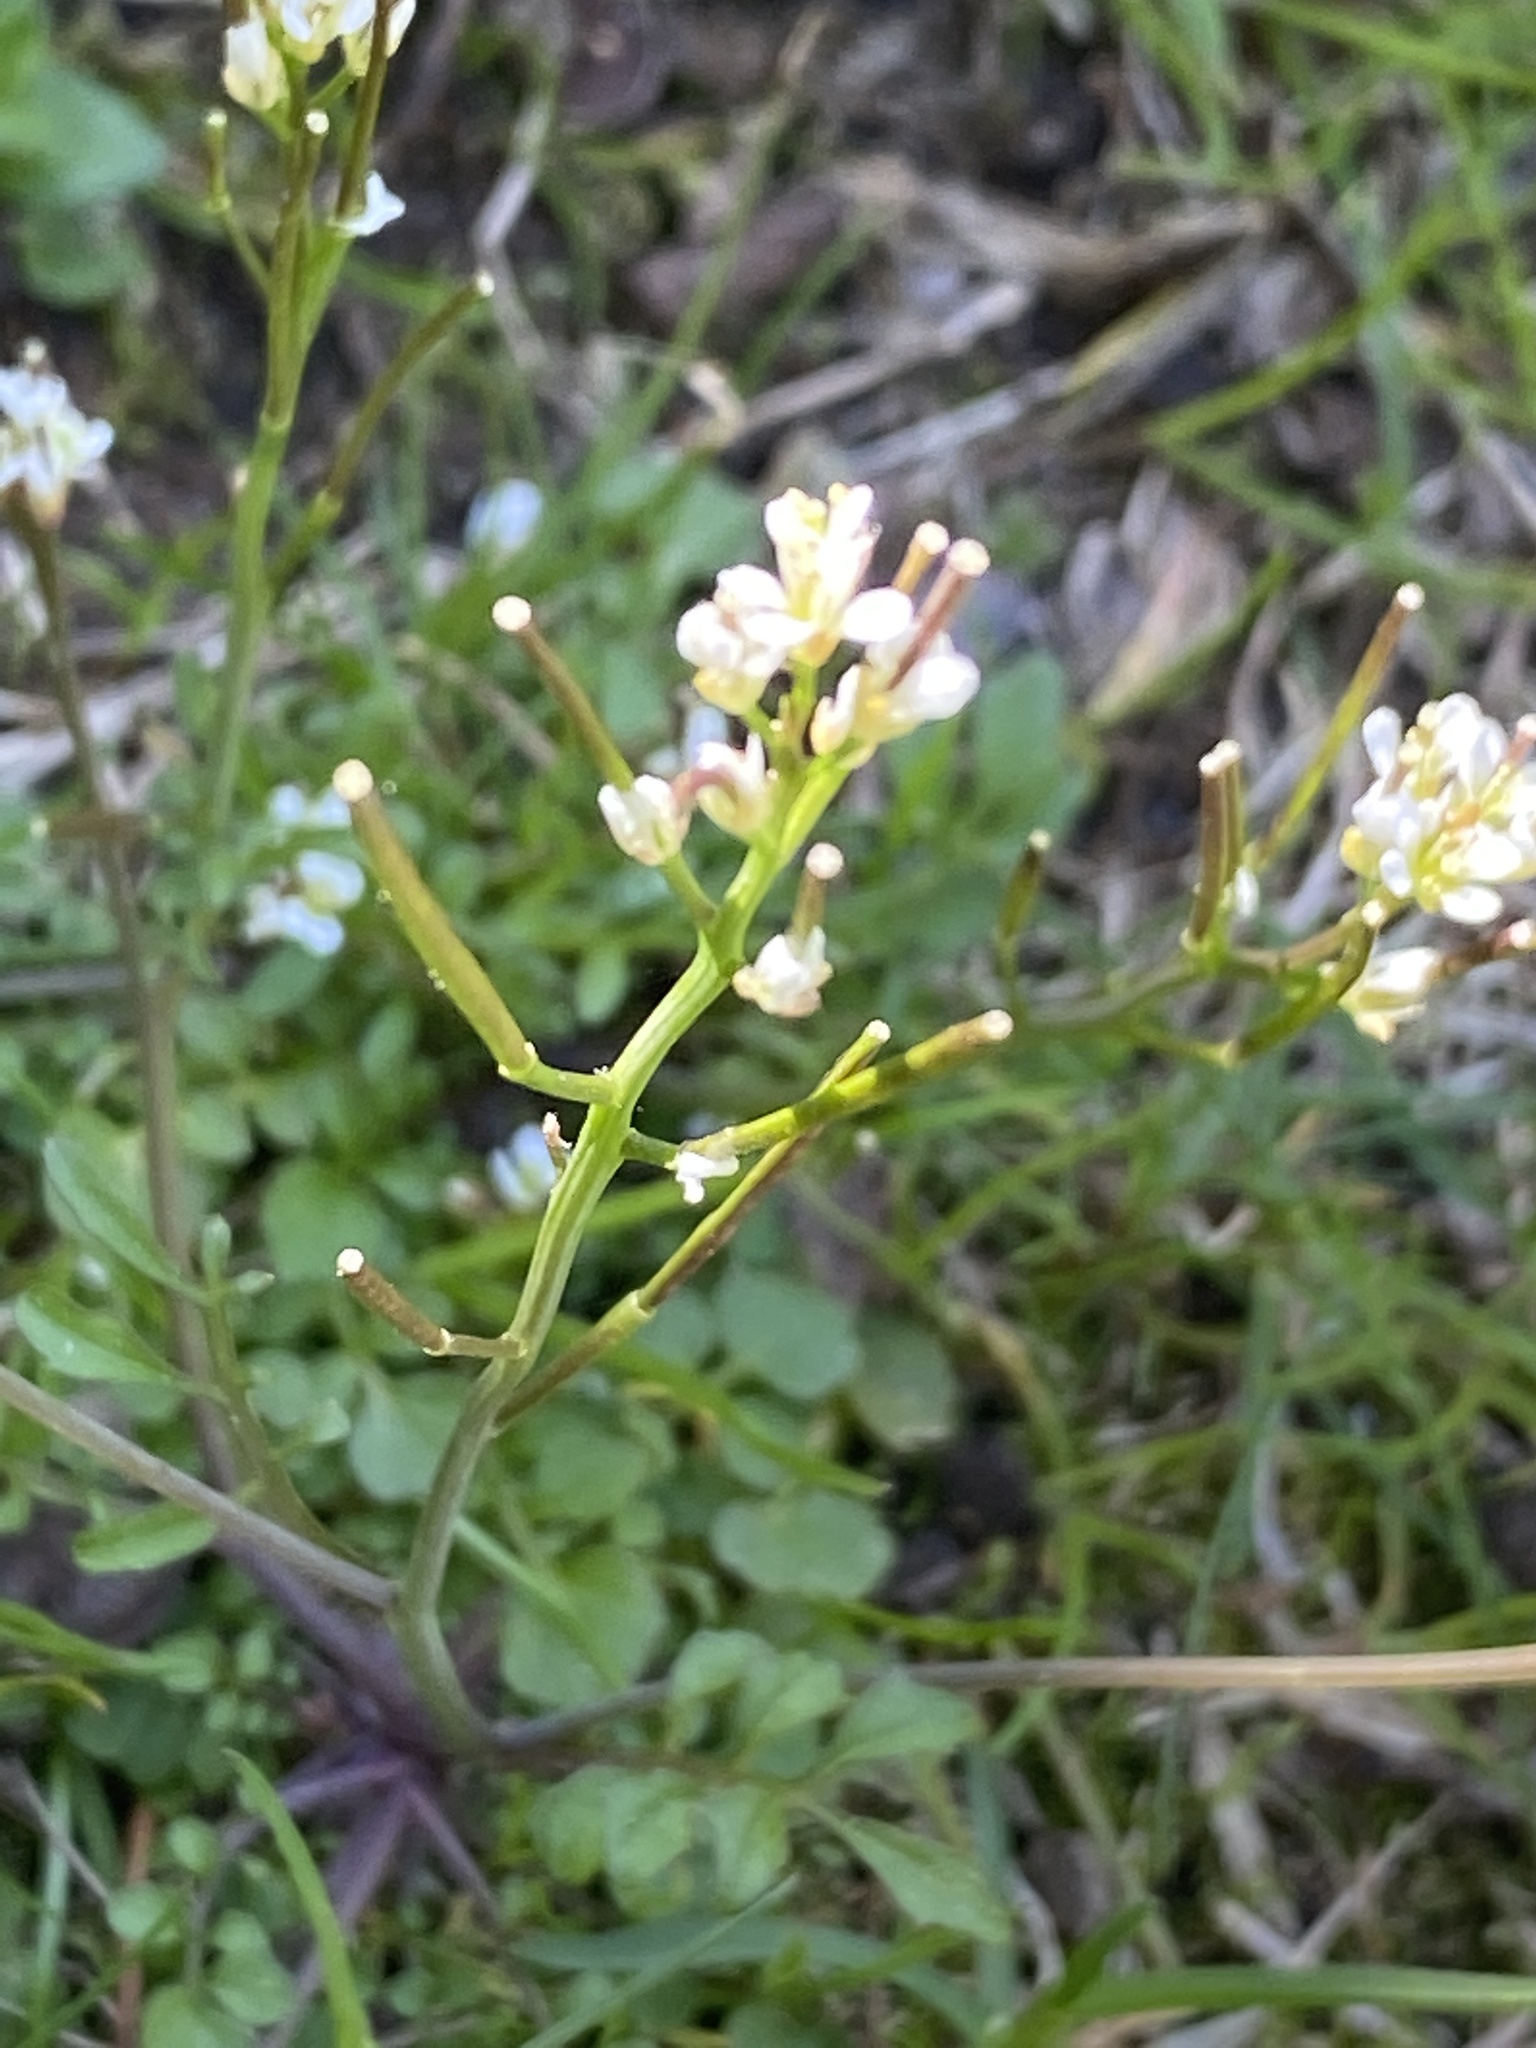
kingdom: Plantae
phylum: Tracheophyta
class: Magnoliopsida
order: Brassicales
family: Brassicaceae
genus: Cardamine
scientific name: Cardamine hirsuta
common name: Hairy bittercress
